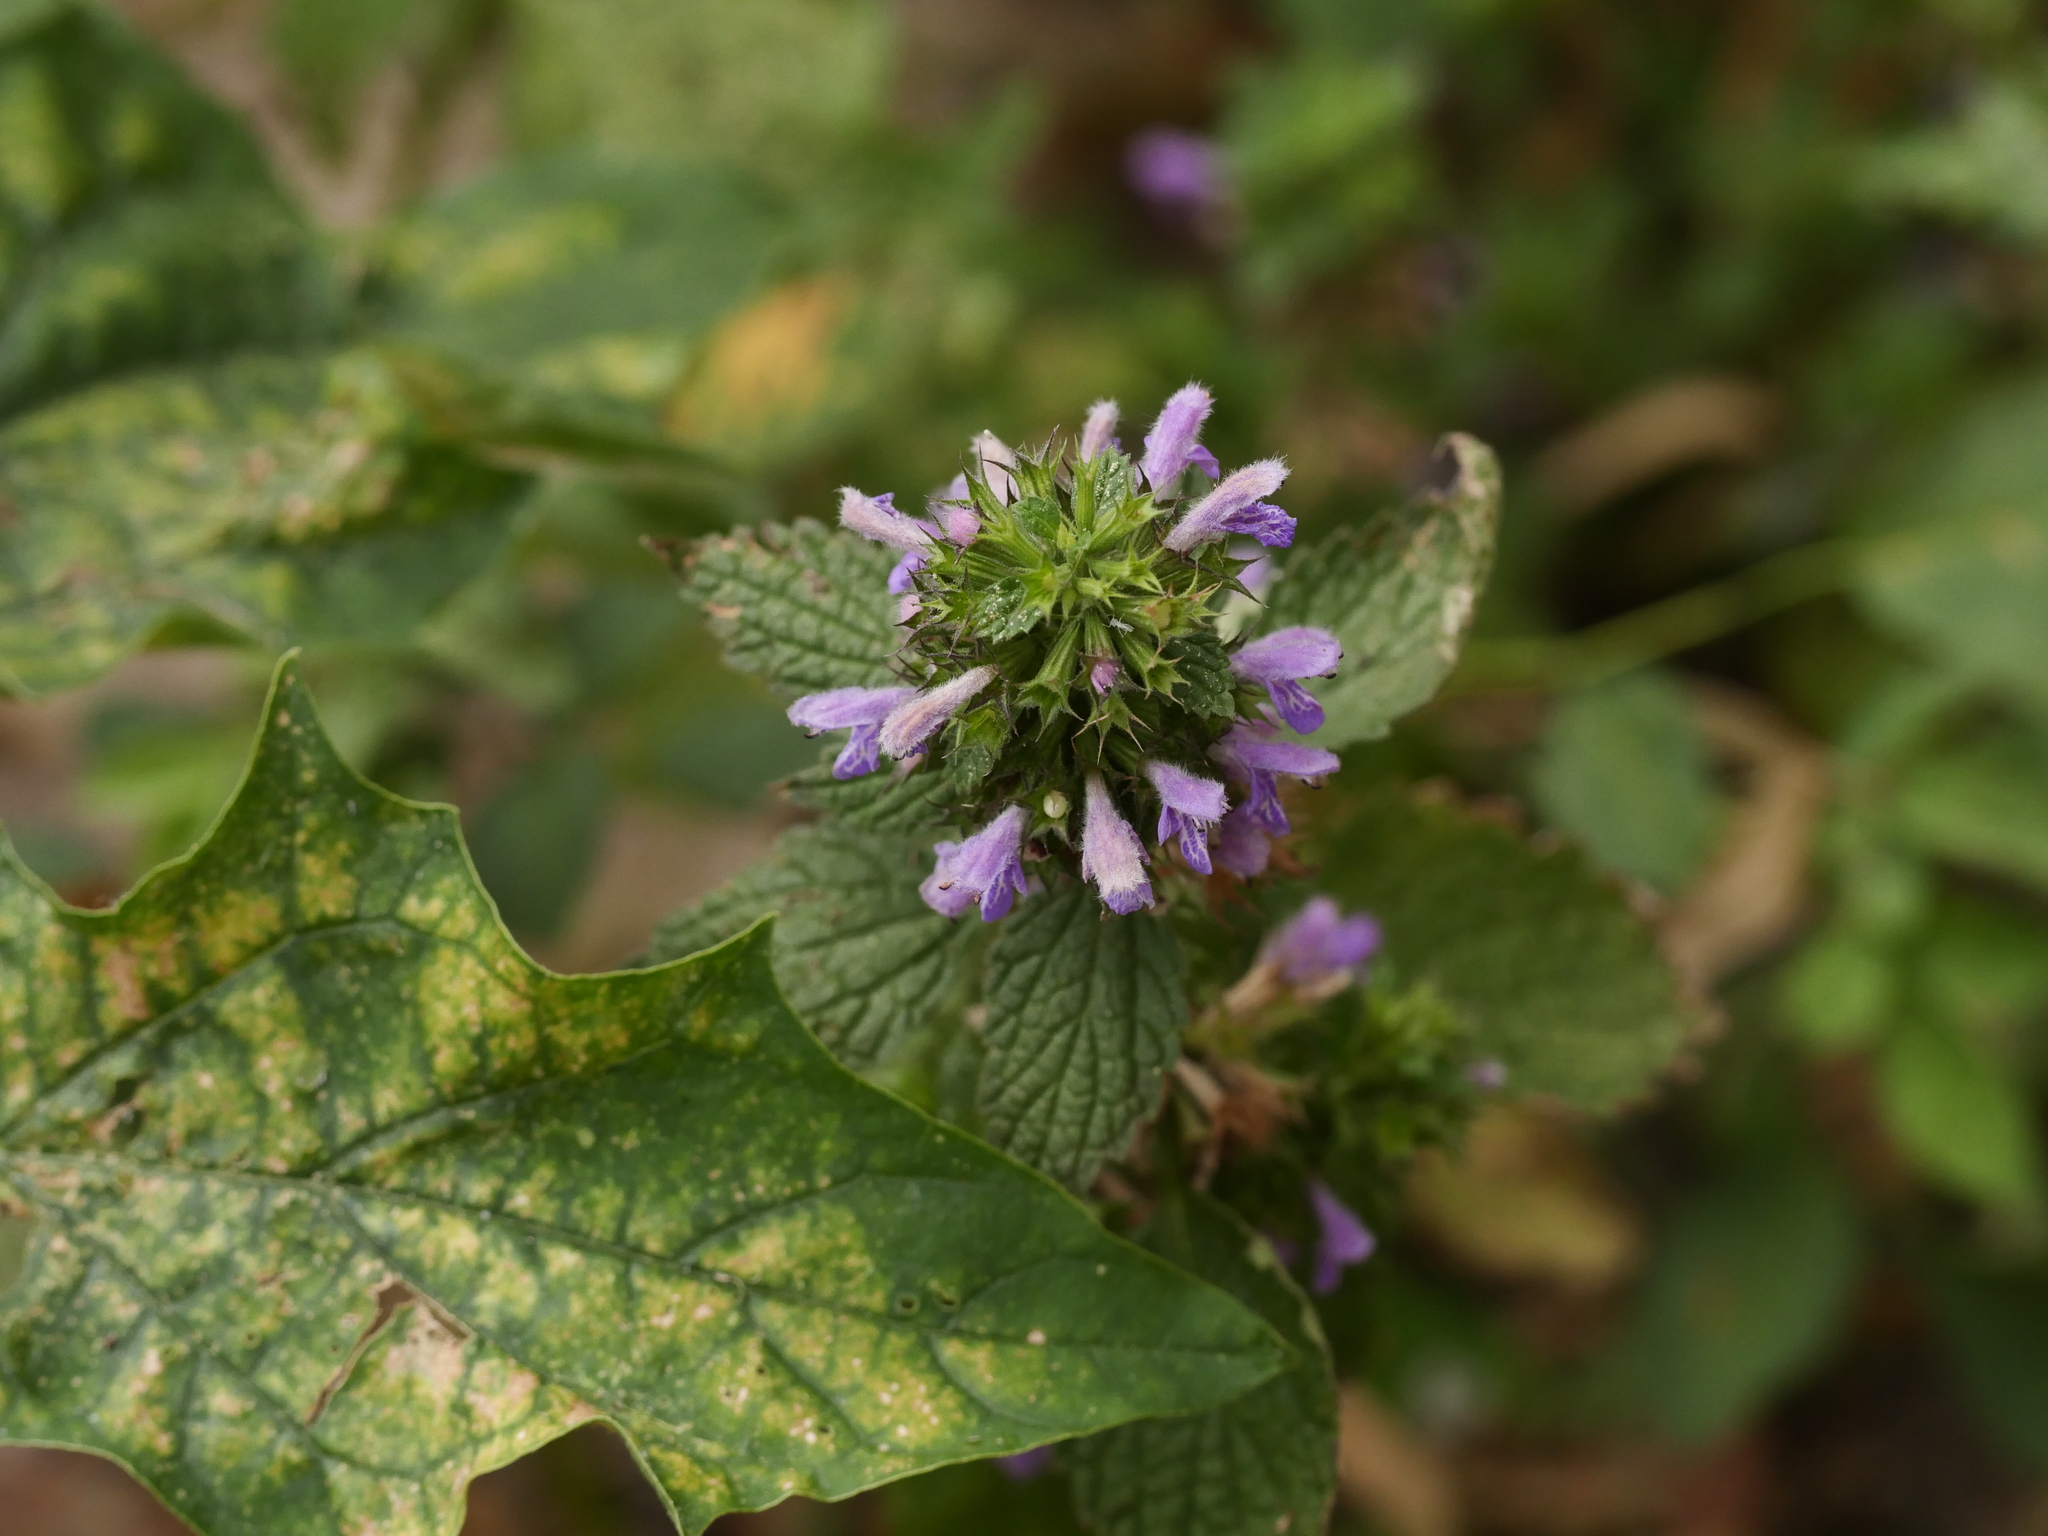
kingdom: Plantae
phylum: Tracheophyta
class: Magnoliopsida
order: Lamiales
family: Lamiaceae
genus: Ballota
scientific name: Ballota nigra
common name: Black horehound
